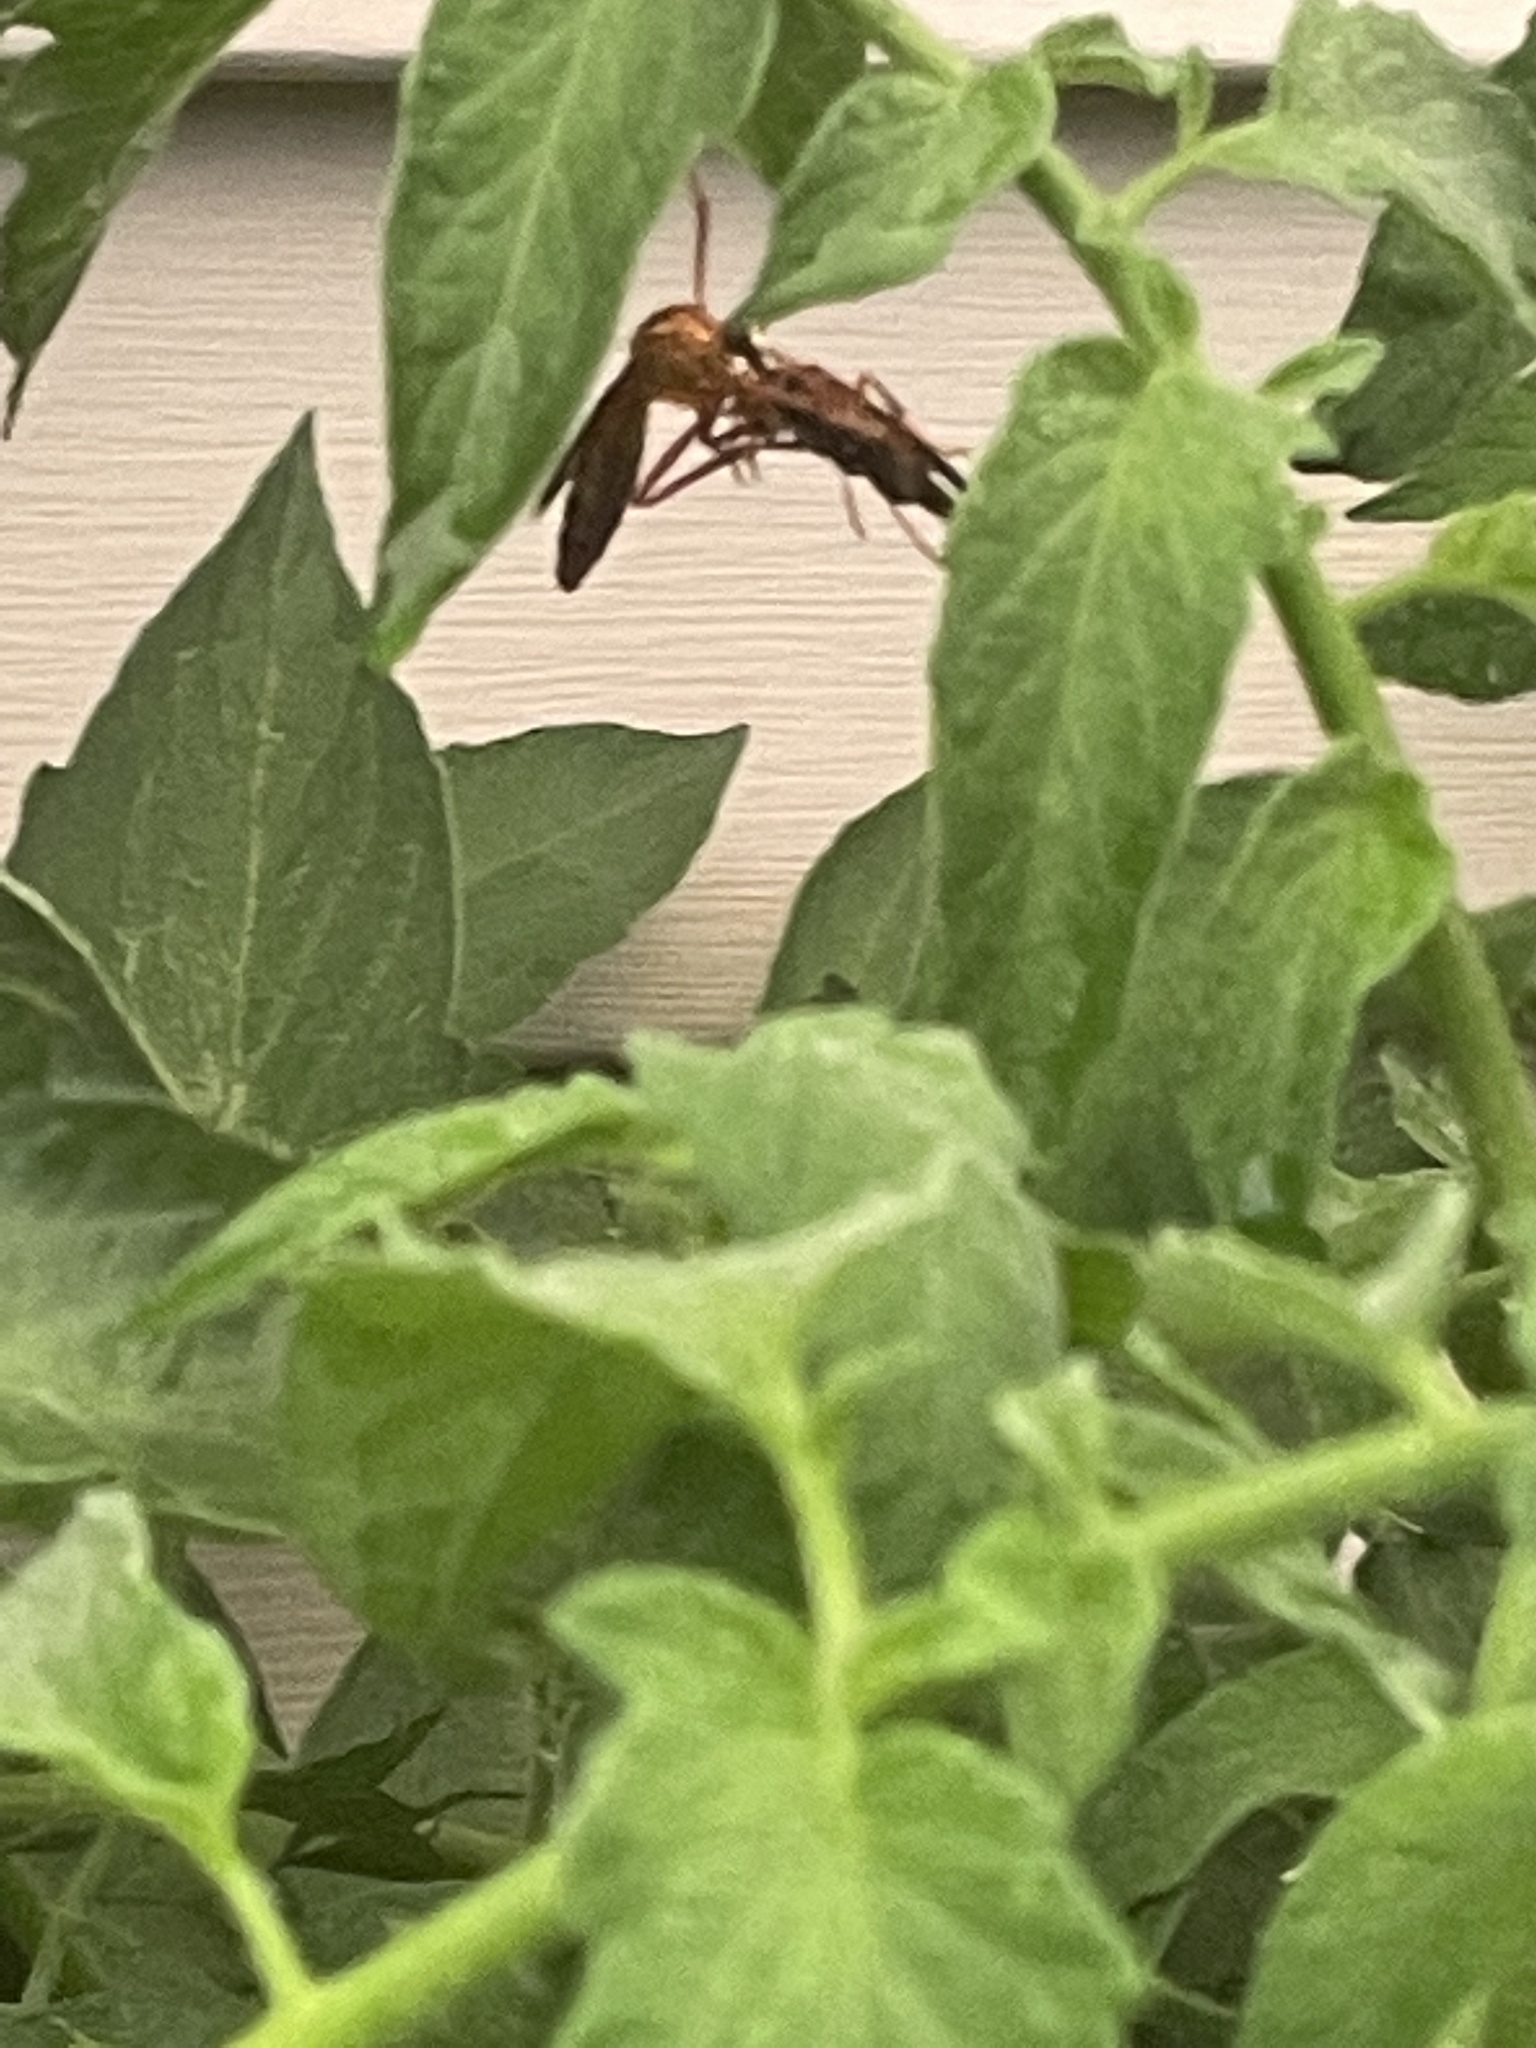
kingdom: Animalia
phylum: Arthropoda
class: Insecta
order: Diptera
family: Asilidae
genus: Diogmites
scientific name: Diogmites neoternatus
